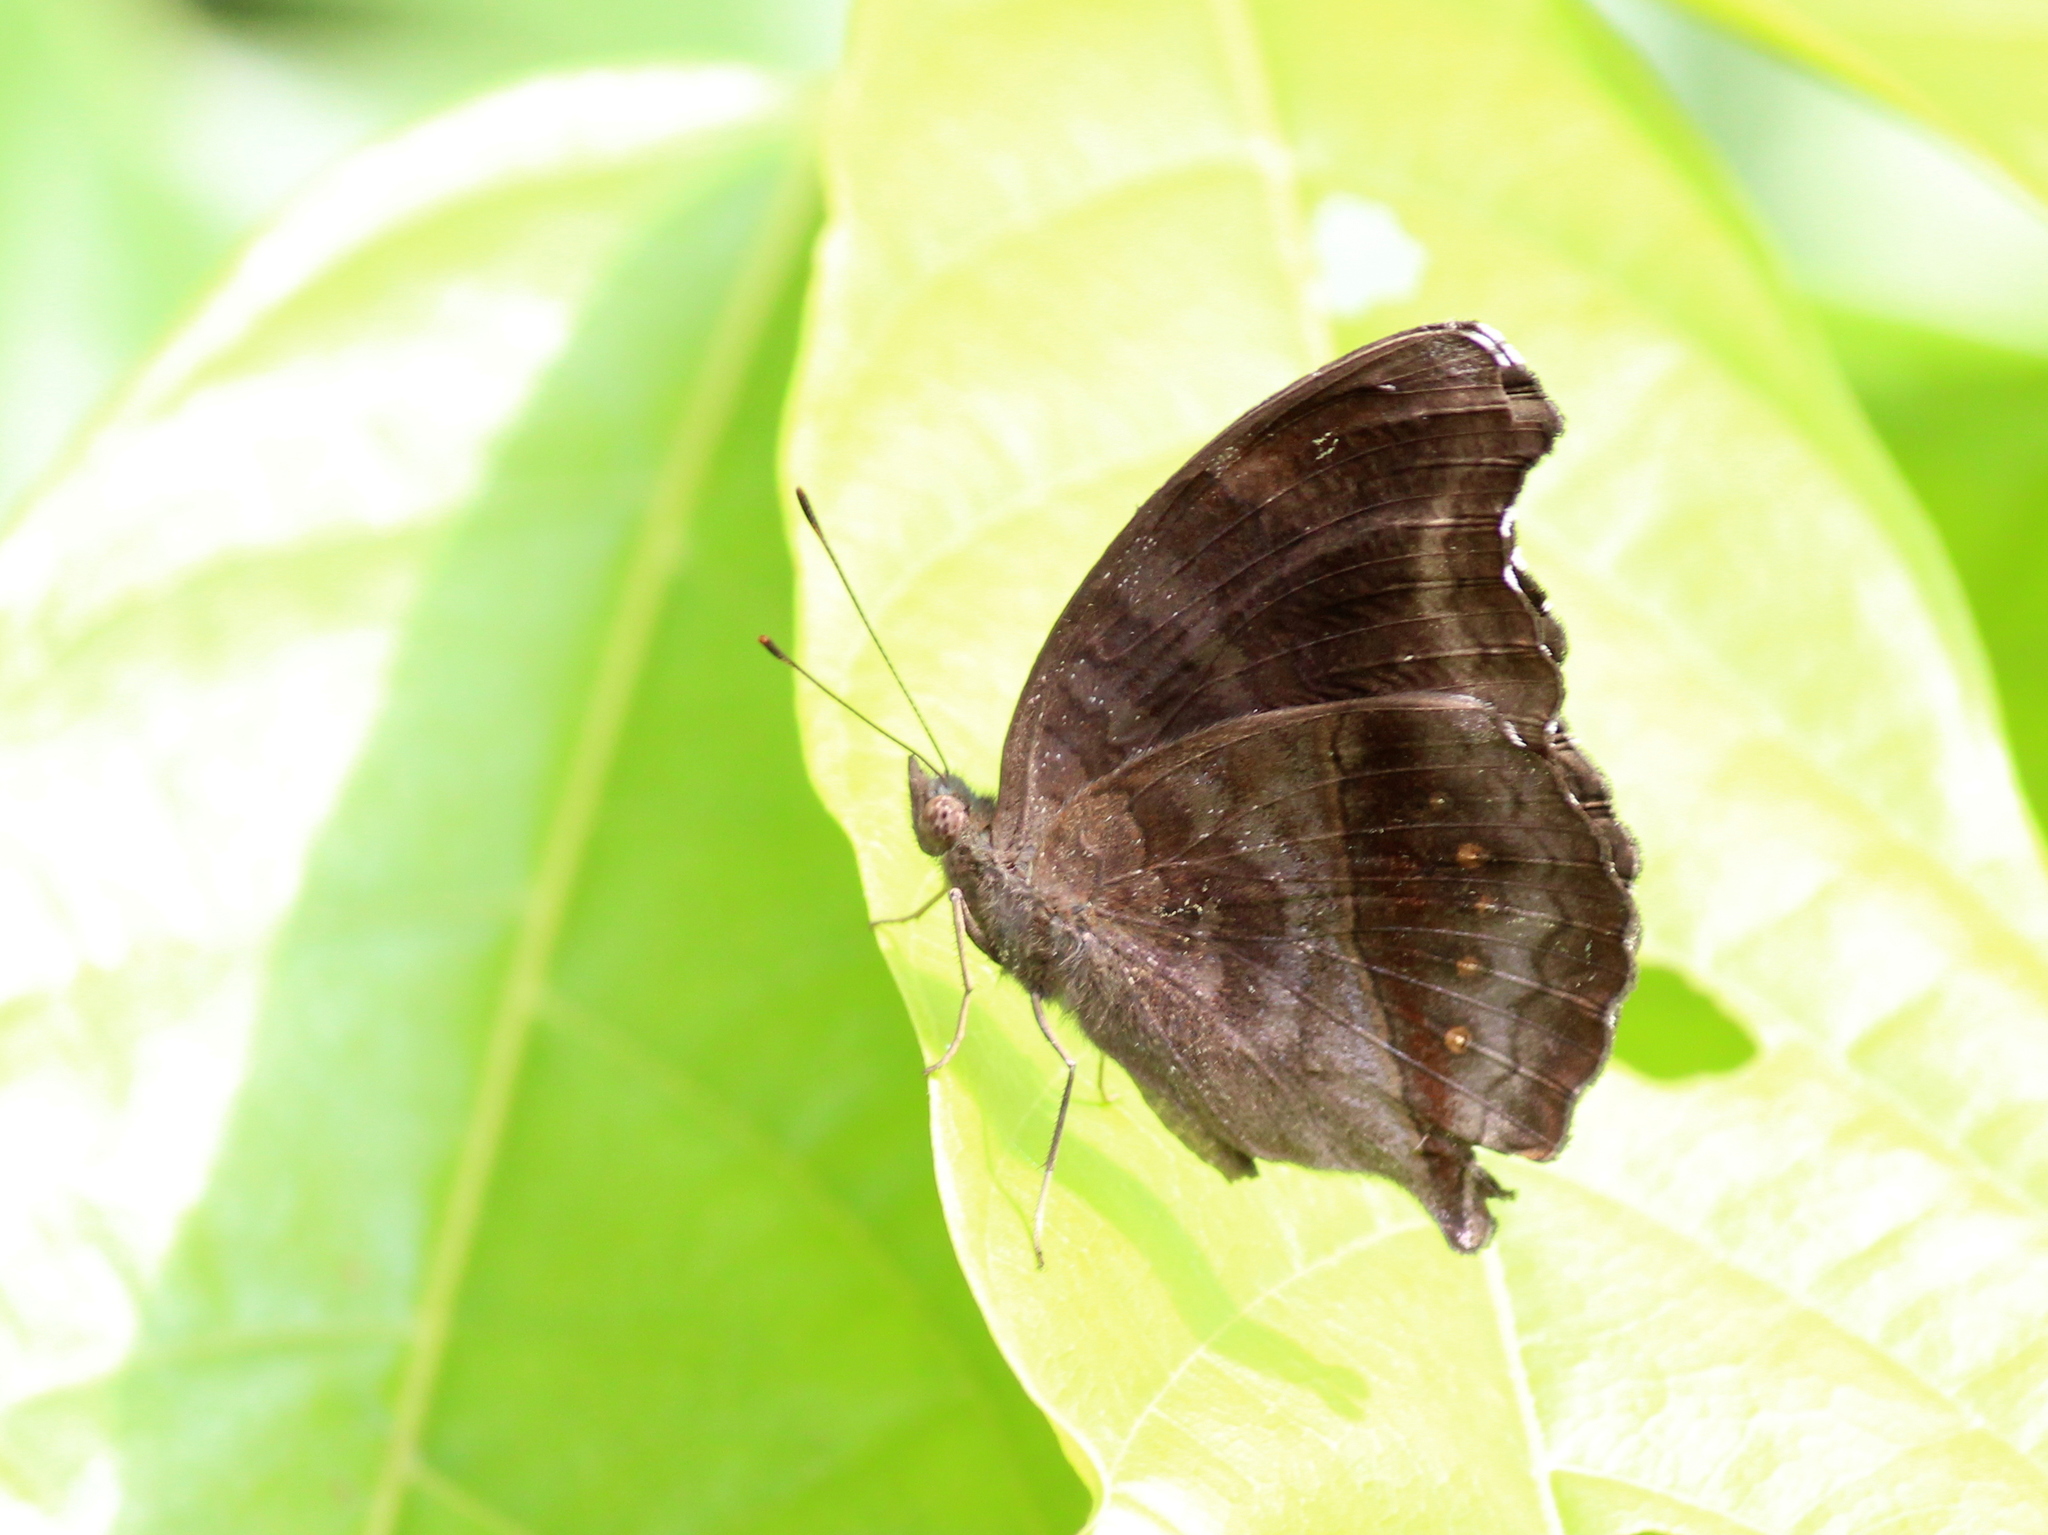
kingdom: Animalia
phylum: Arthropoda
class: Insecta
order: Lepidoptera
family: Nymphalidae
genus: Junonia
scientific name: Junonia iphita
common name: Chocolate pansy
